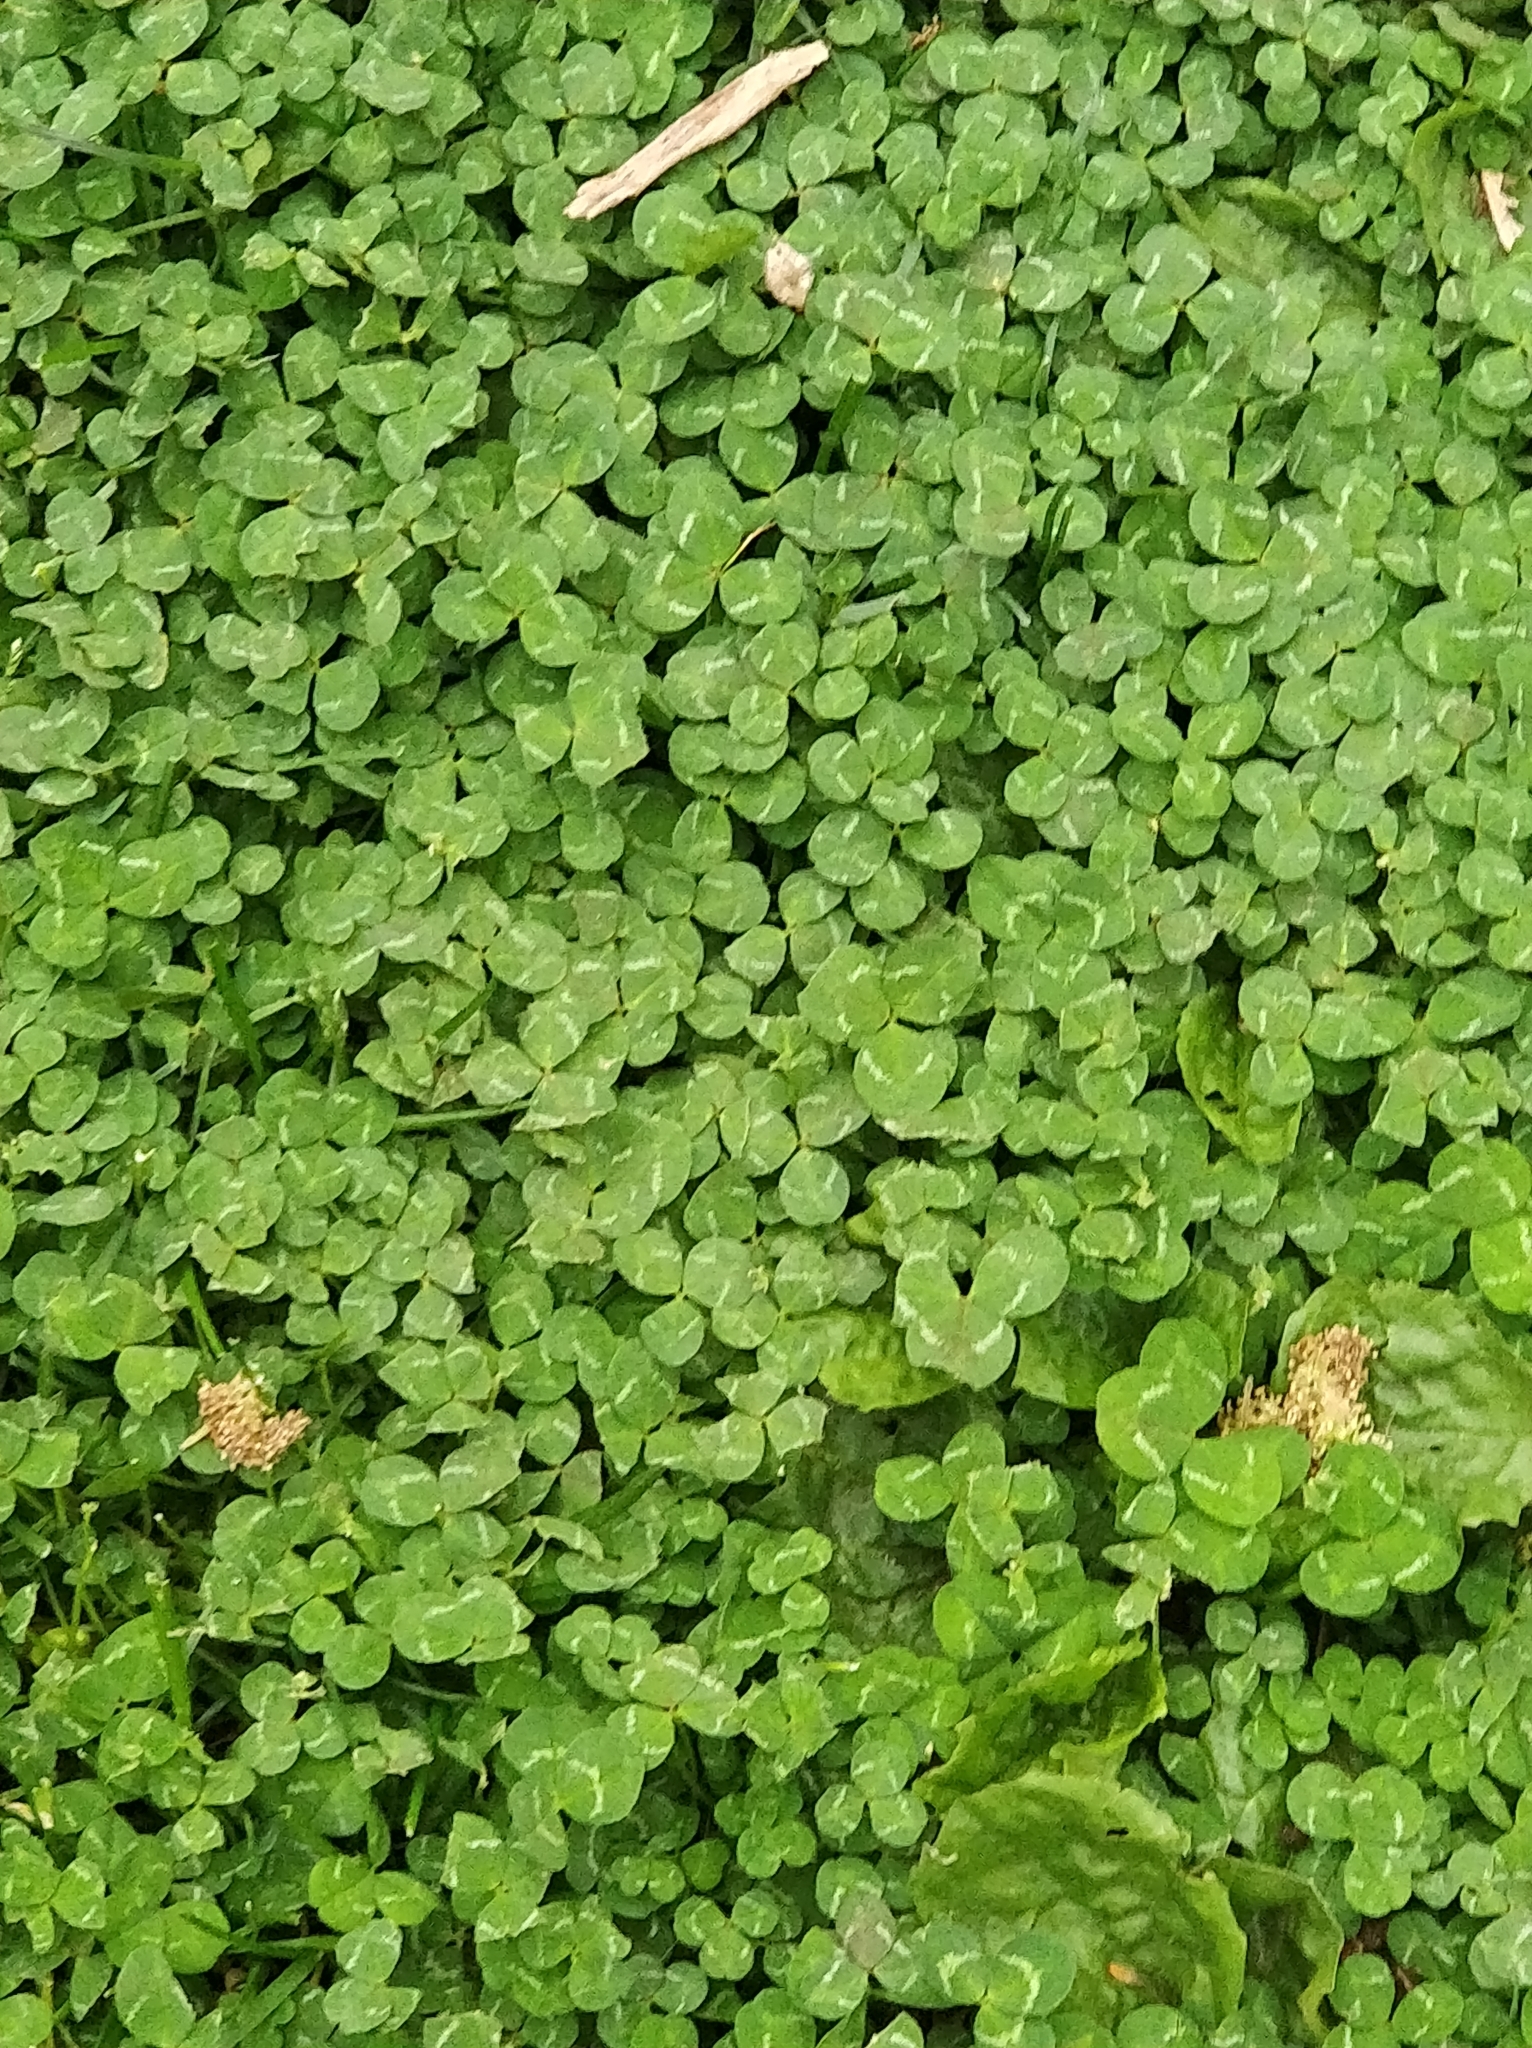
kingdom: Plantae
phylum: Tracheophyta
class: Magnoliopsida
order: Fabales
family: Fabaceae
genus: Trifolium
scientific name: Trifolium repens
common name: White clover
